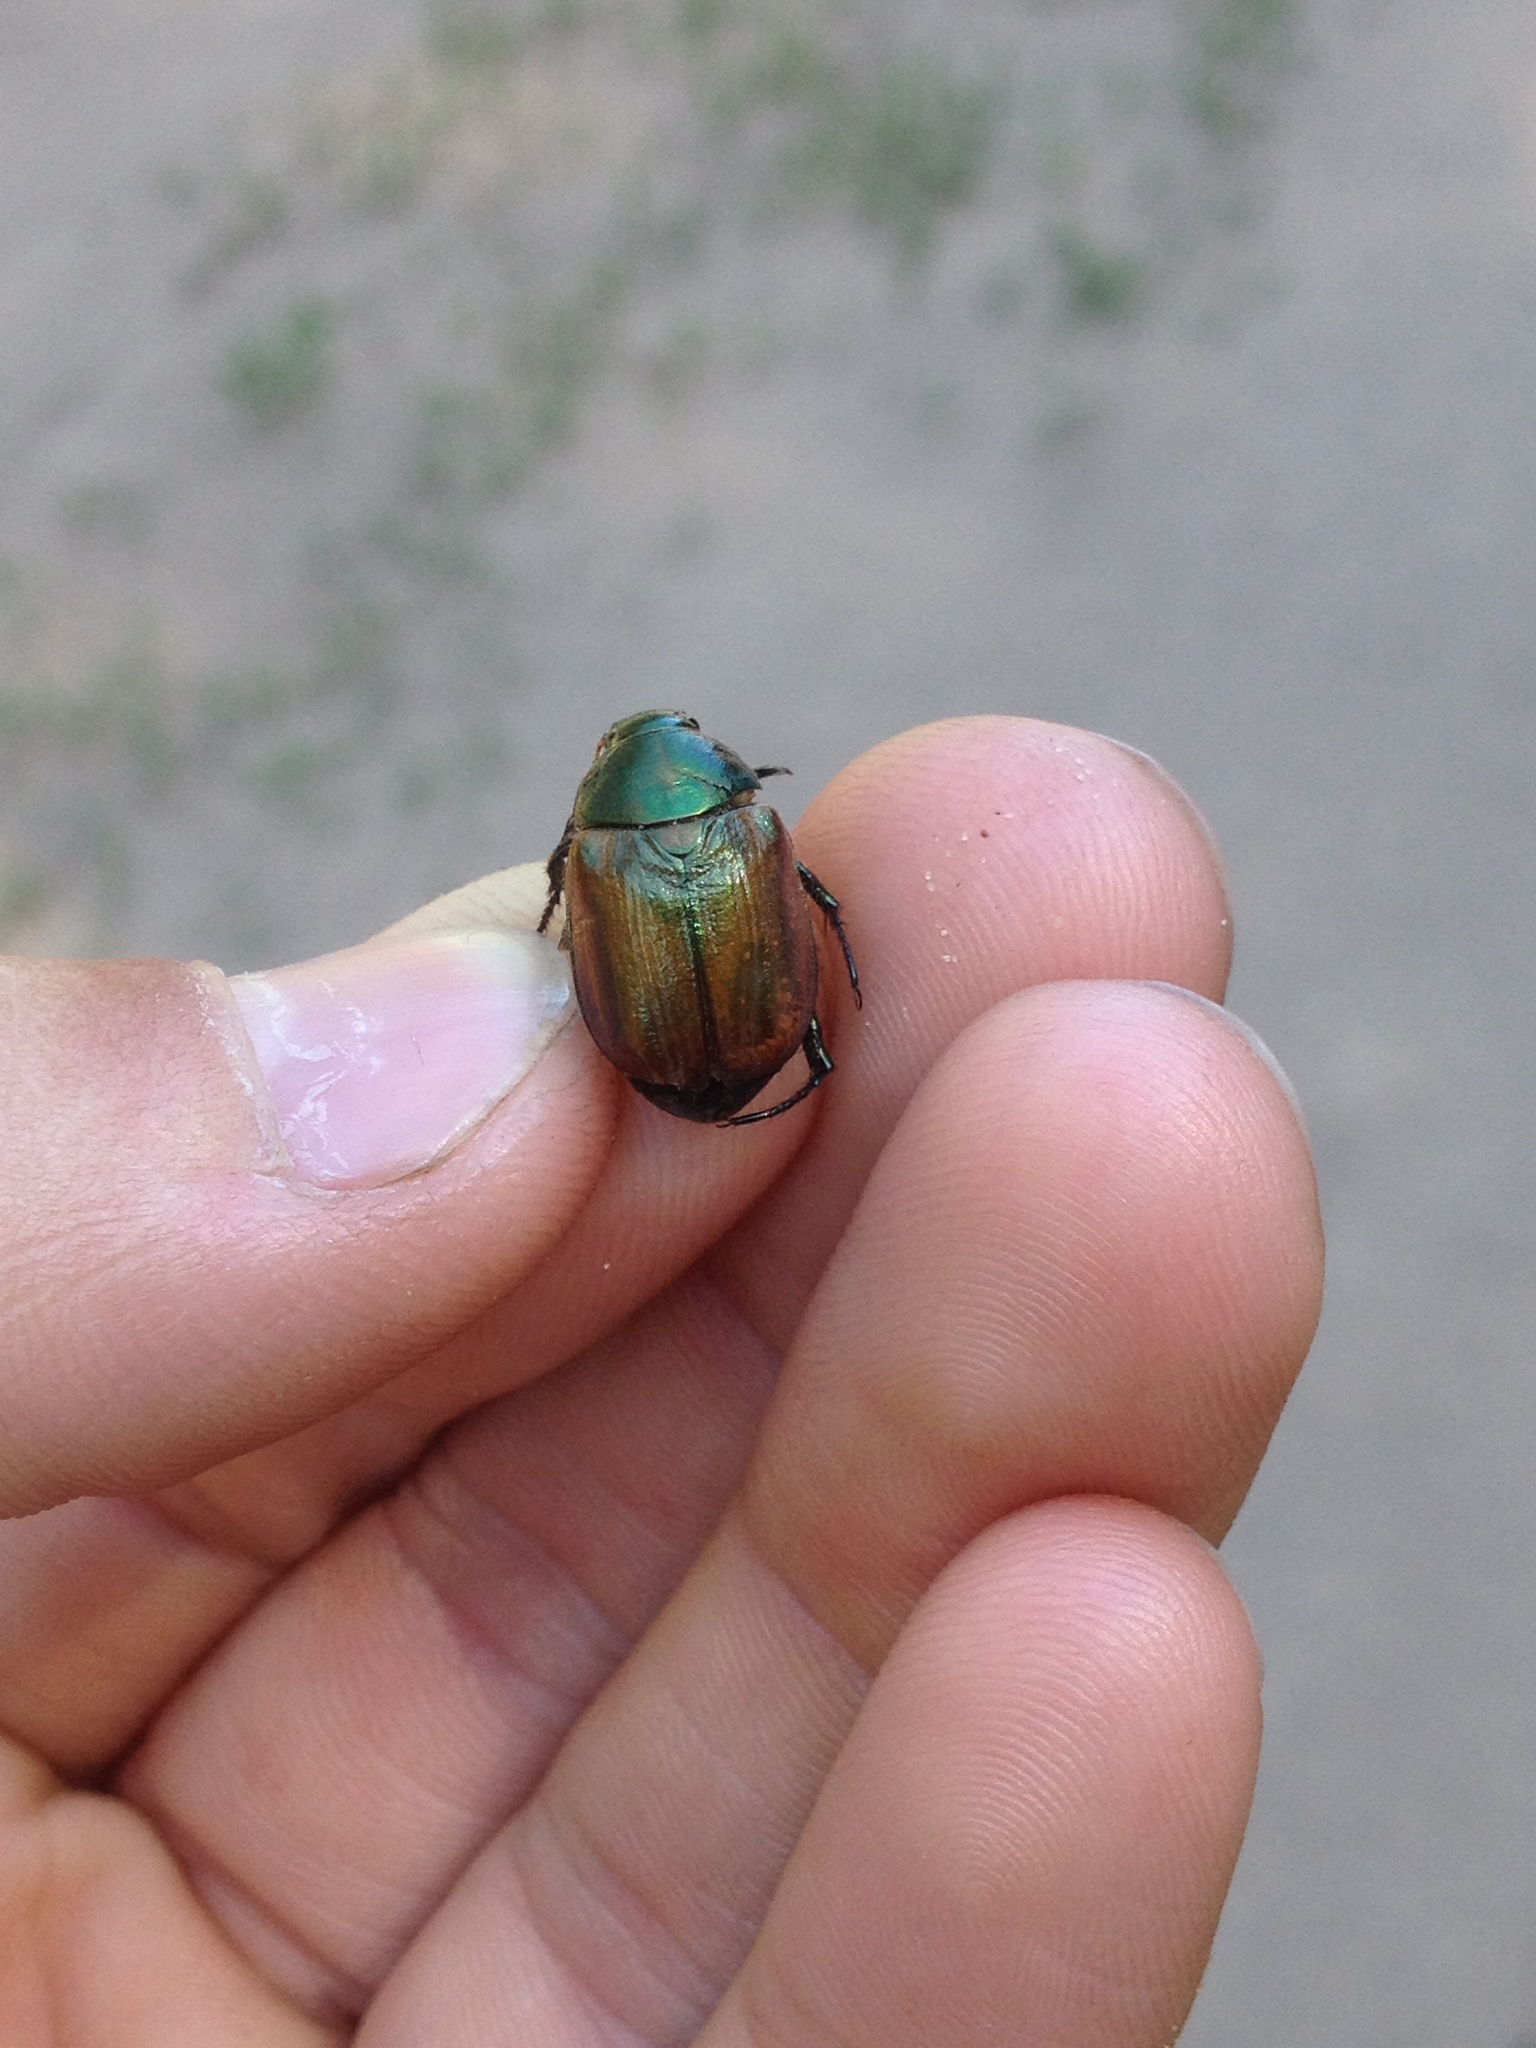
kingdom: Animalia
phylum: Arthropoda
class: Insecta
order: Coleoptera
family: Scarabaeidae
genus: Anomala
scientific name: Anomala dubia
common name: Dune chafer
